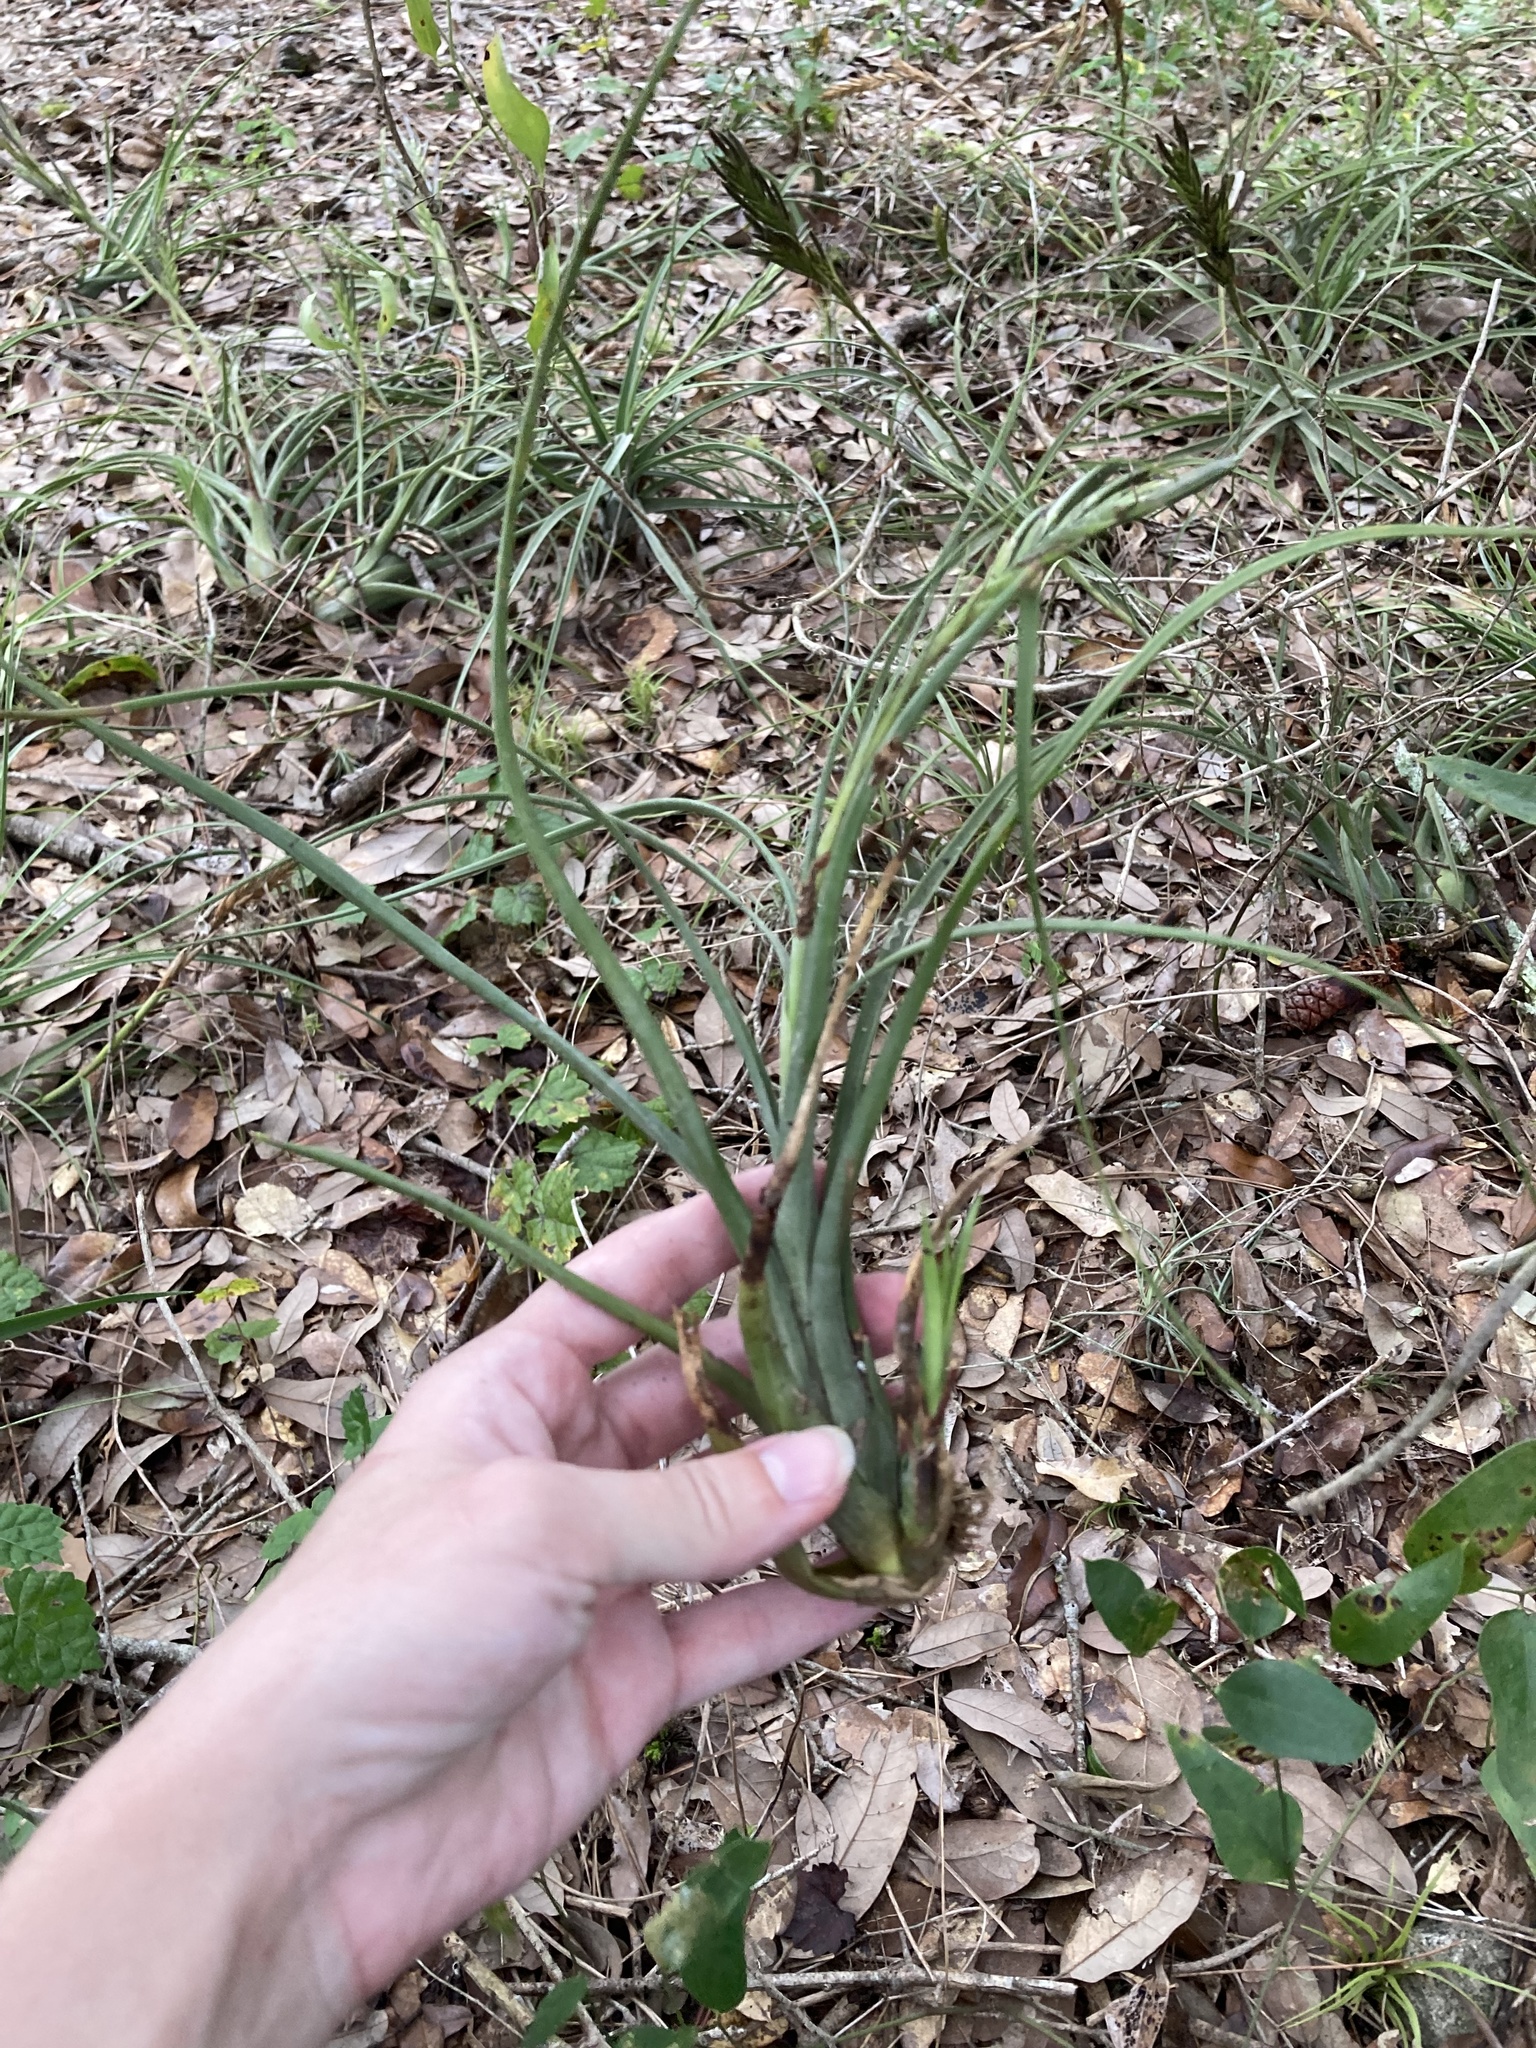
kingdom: Plantae
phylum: Tracheophyta
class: Liliopsida
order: Poales
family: Bromeliaceae
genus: Tillandsia
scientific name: Tillandsia balbisiana
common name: Northern needleleaf
